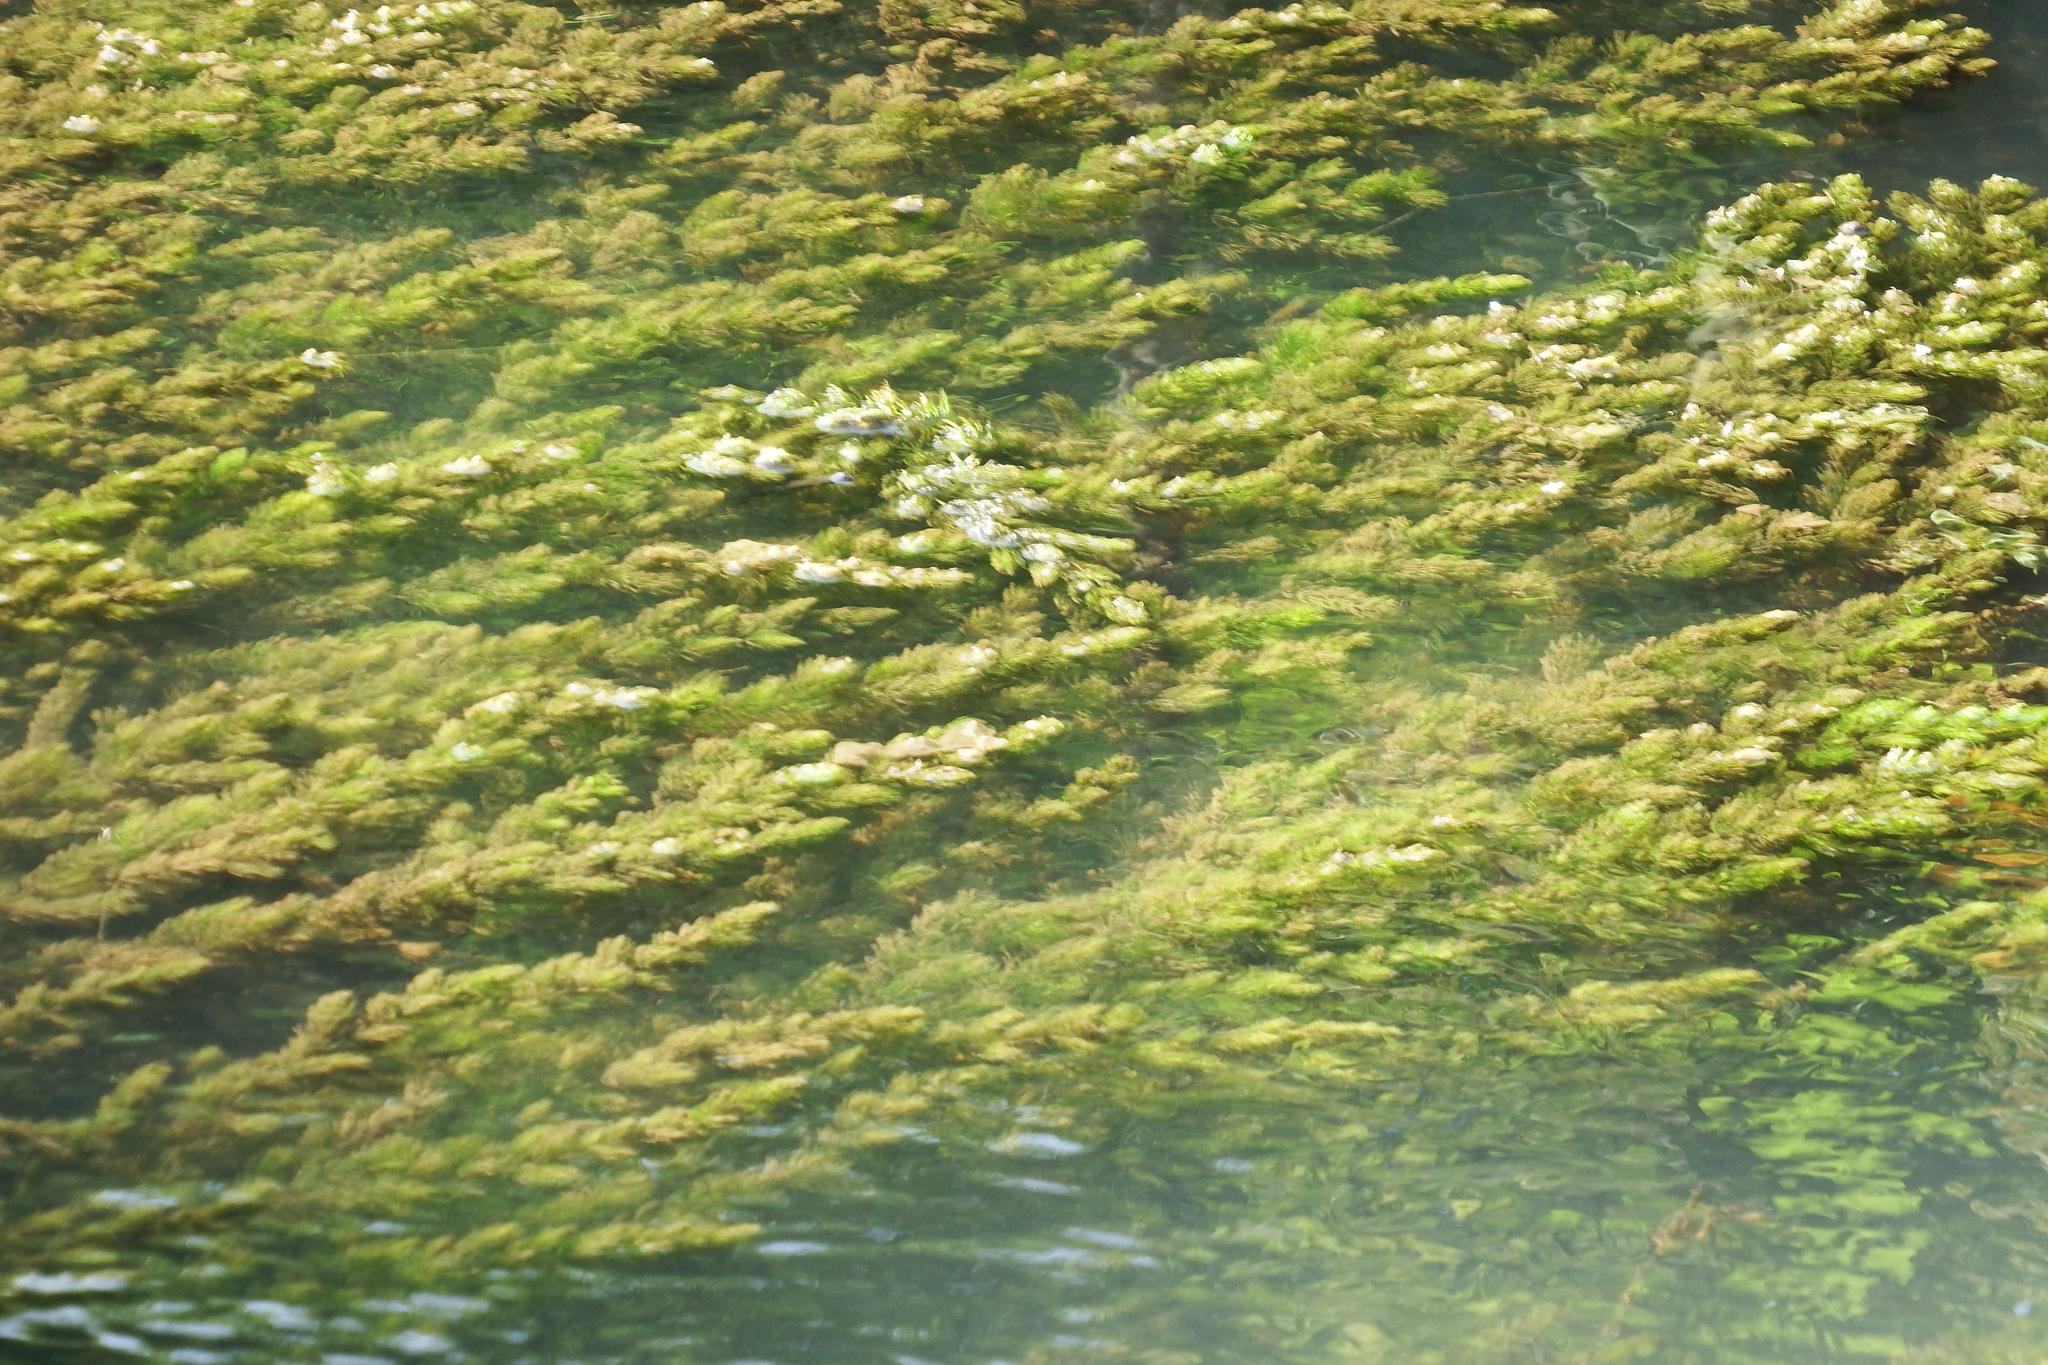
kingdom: Plantae
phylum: Tracheophyta
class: Magnoliopsida
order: Ceratophyllales
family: Ceratophyllaceae
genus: Ceratophyllum
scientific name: Ceratophyllum demersum
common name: Rigid hornwort
